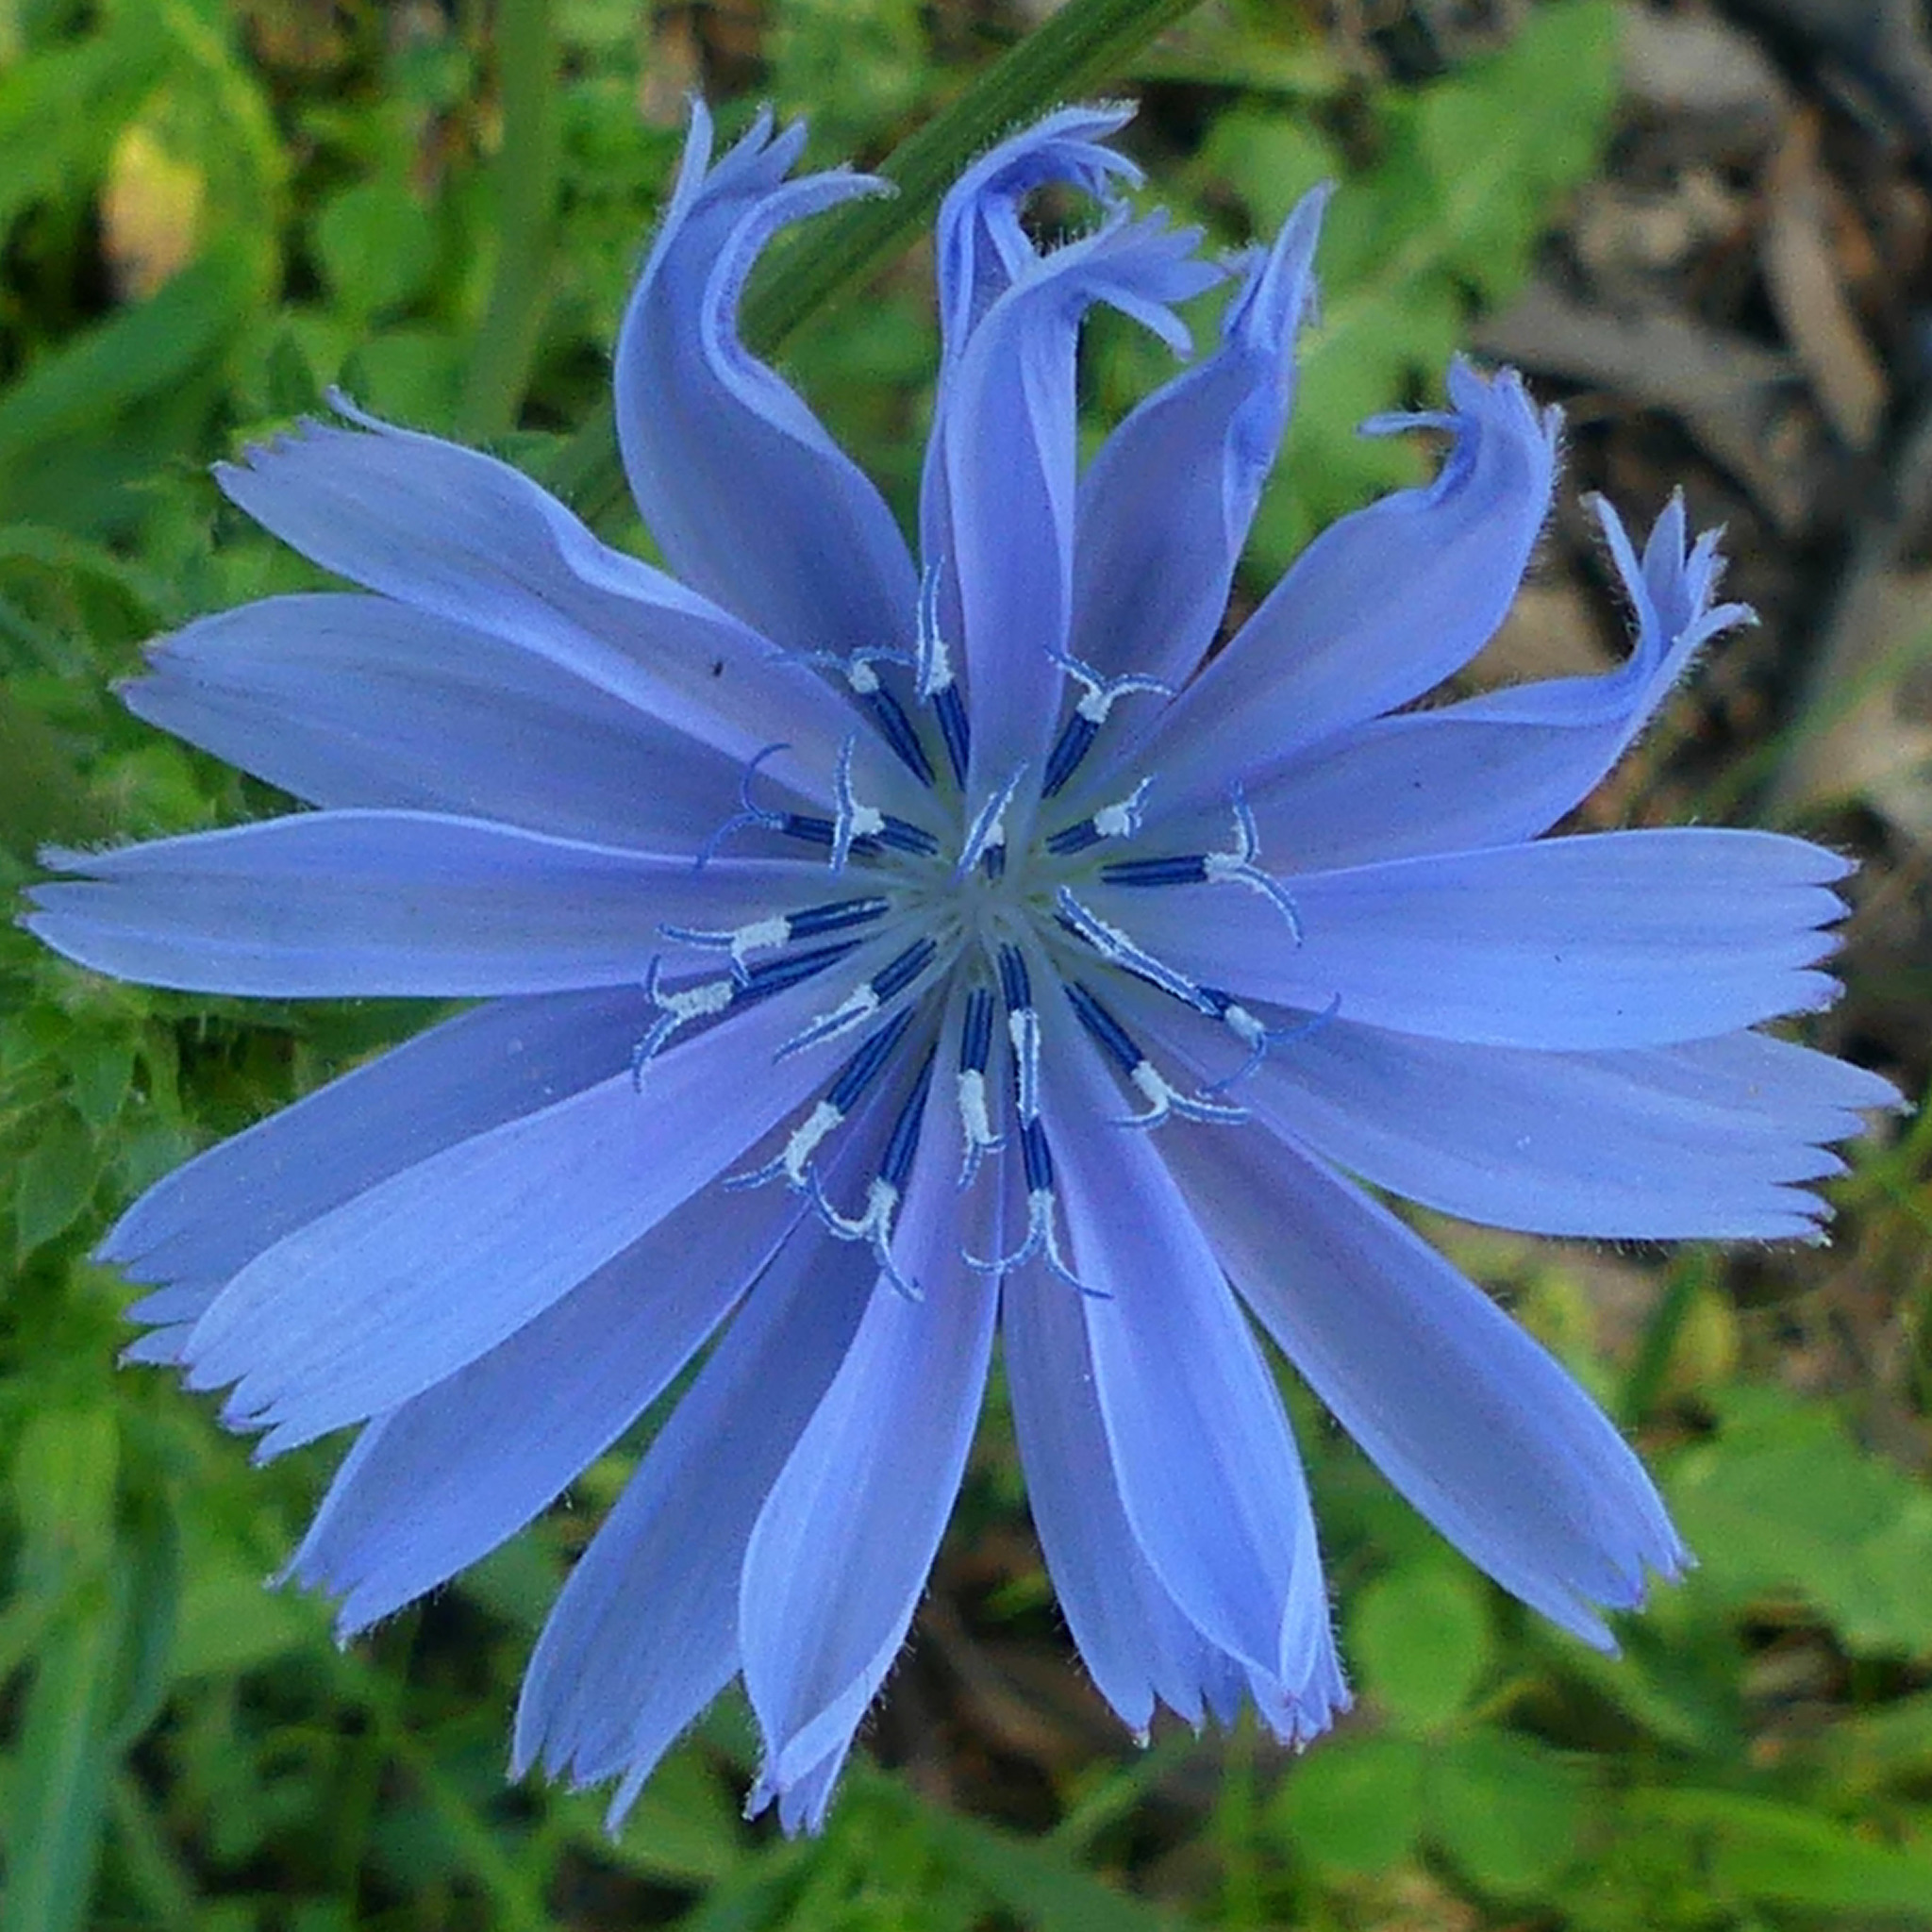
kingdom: Plantae
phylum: Tracheophyta
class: Magnoliopsida
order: Asterales
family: Asteraceae
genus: Cichorium
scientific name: Cichorium intybus
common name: Chicory
